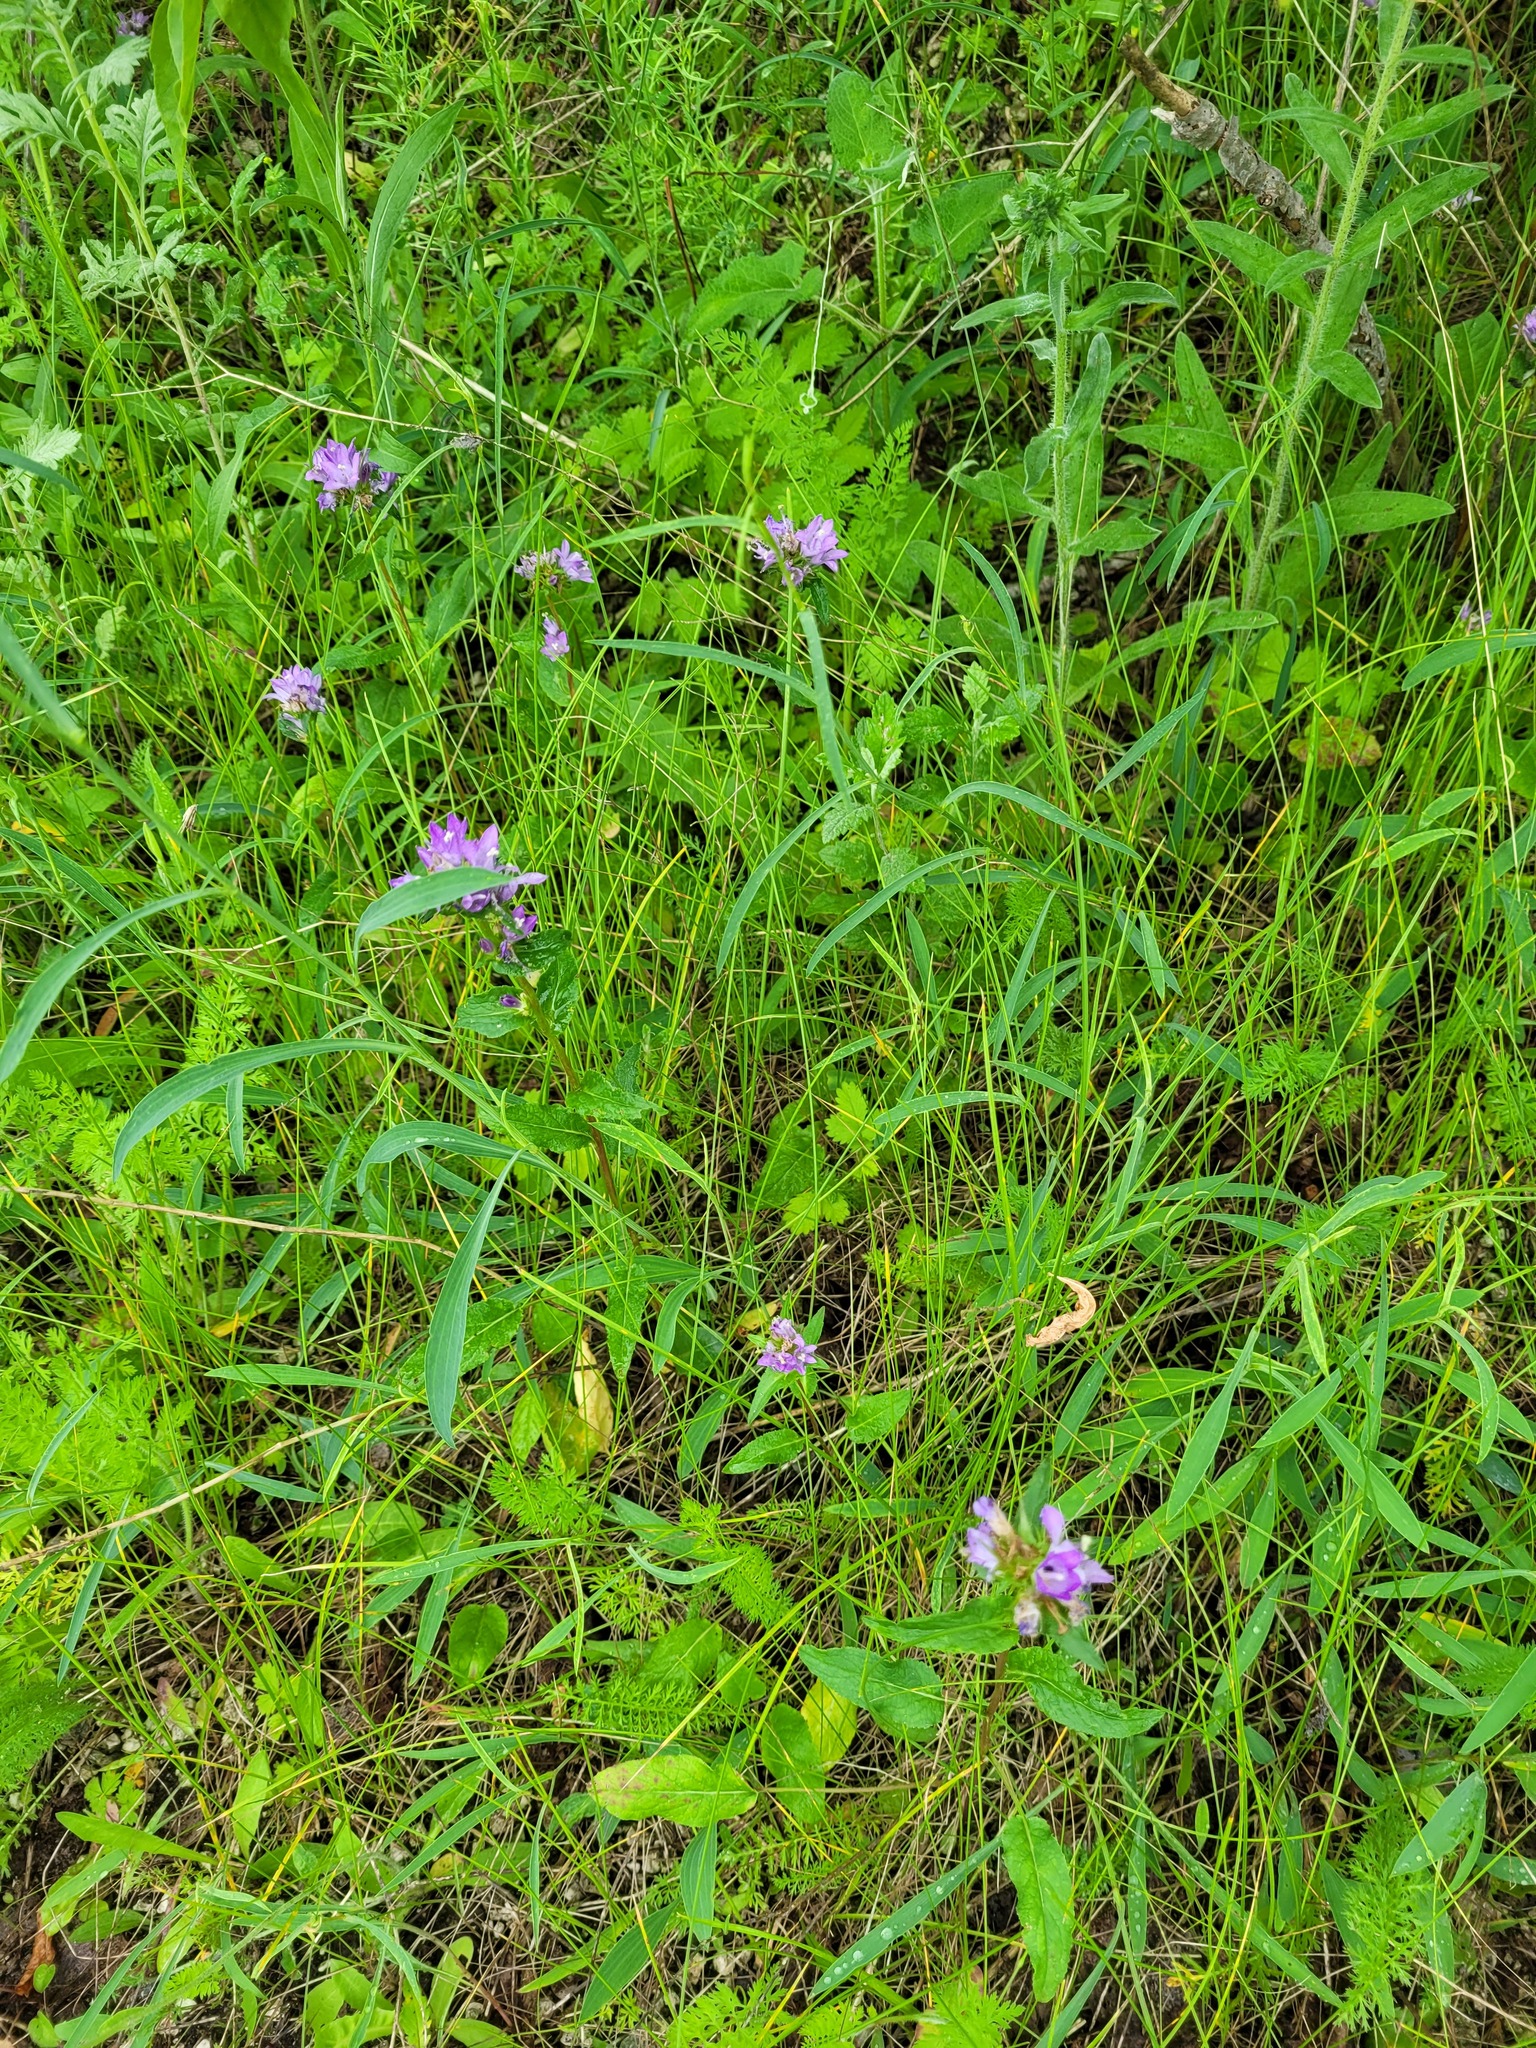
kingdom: Plantae
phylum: Tracheophyta
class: Magnoliopsida
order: Asterales
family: Campanulaceae
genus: Campanula
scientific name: Campanula glomerata
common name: Clustered bellflower
